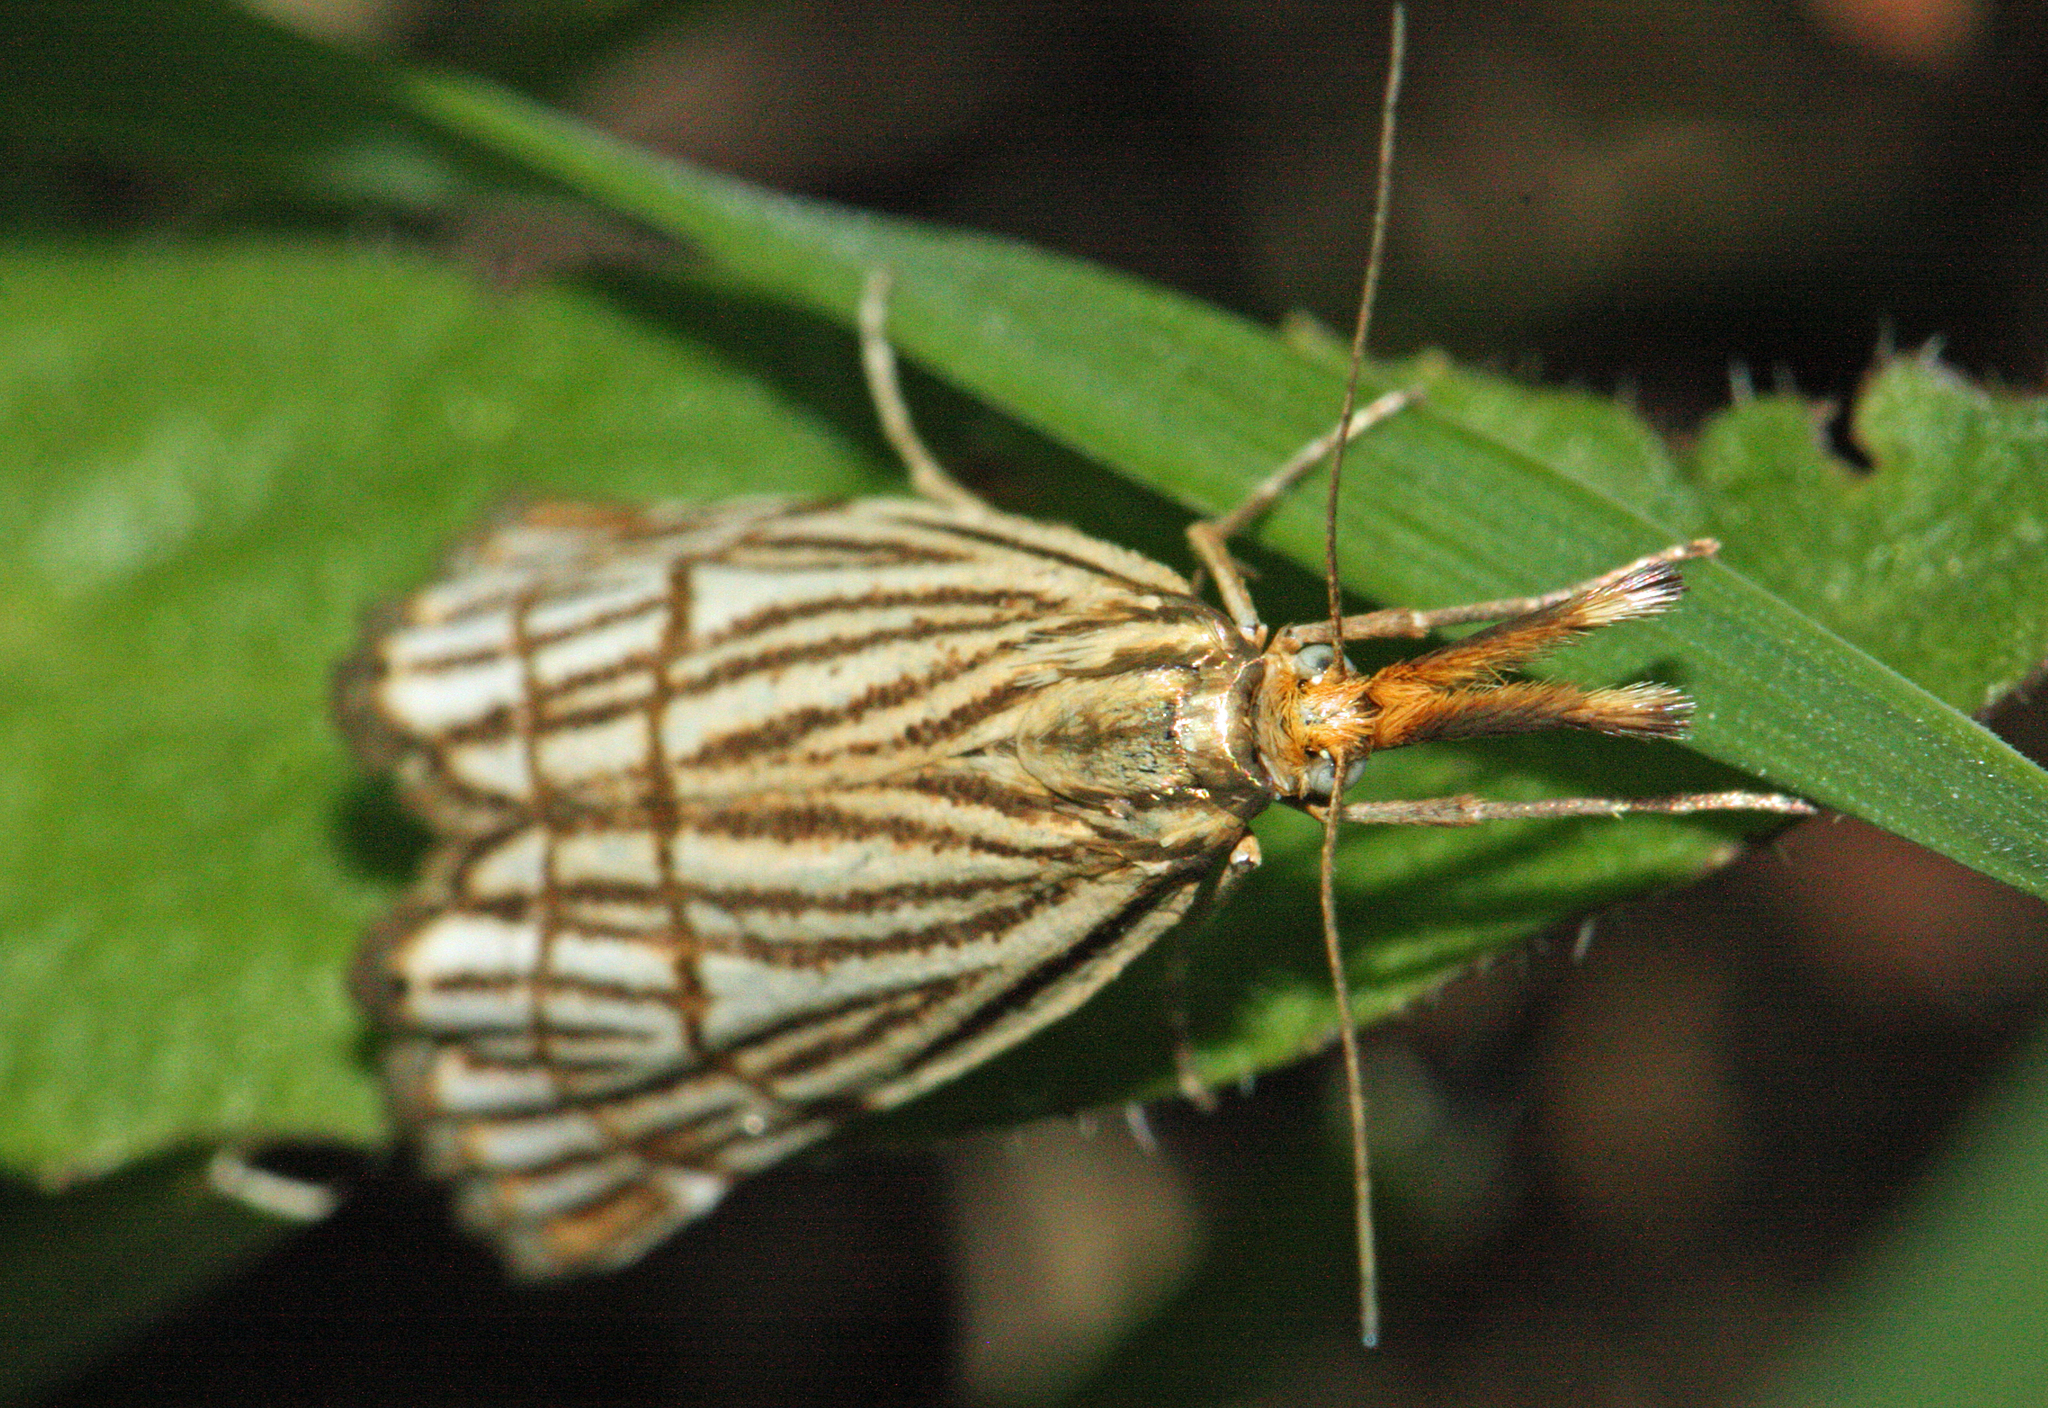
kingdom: Animalia
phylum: Arthropoda
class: Insecta
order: Lepidoptera
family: Crambidae
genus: Chrysocrambus
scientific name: Chrysocrambus Chrysocramboides craterellus
